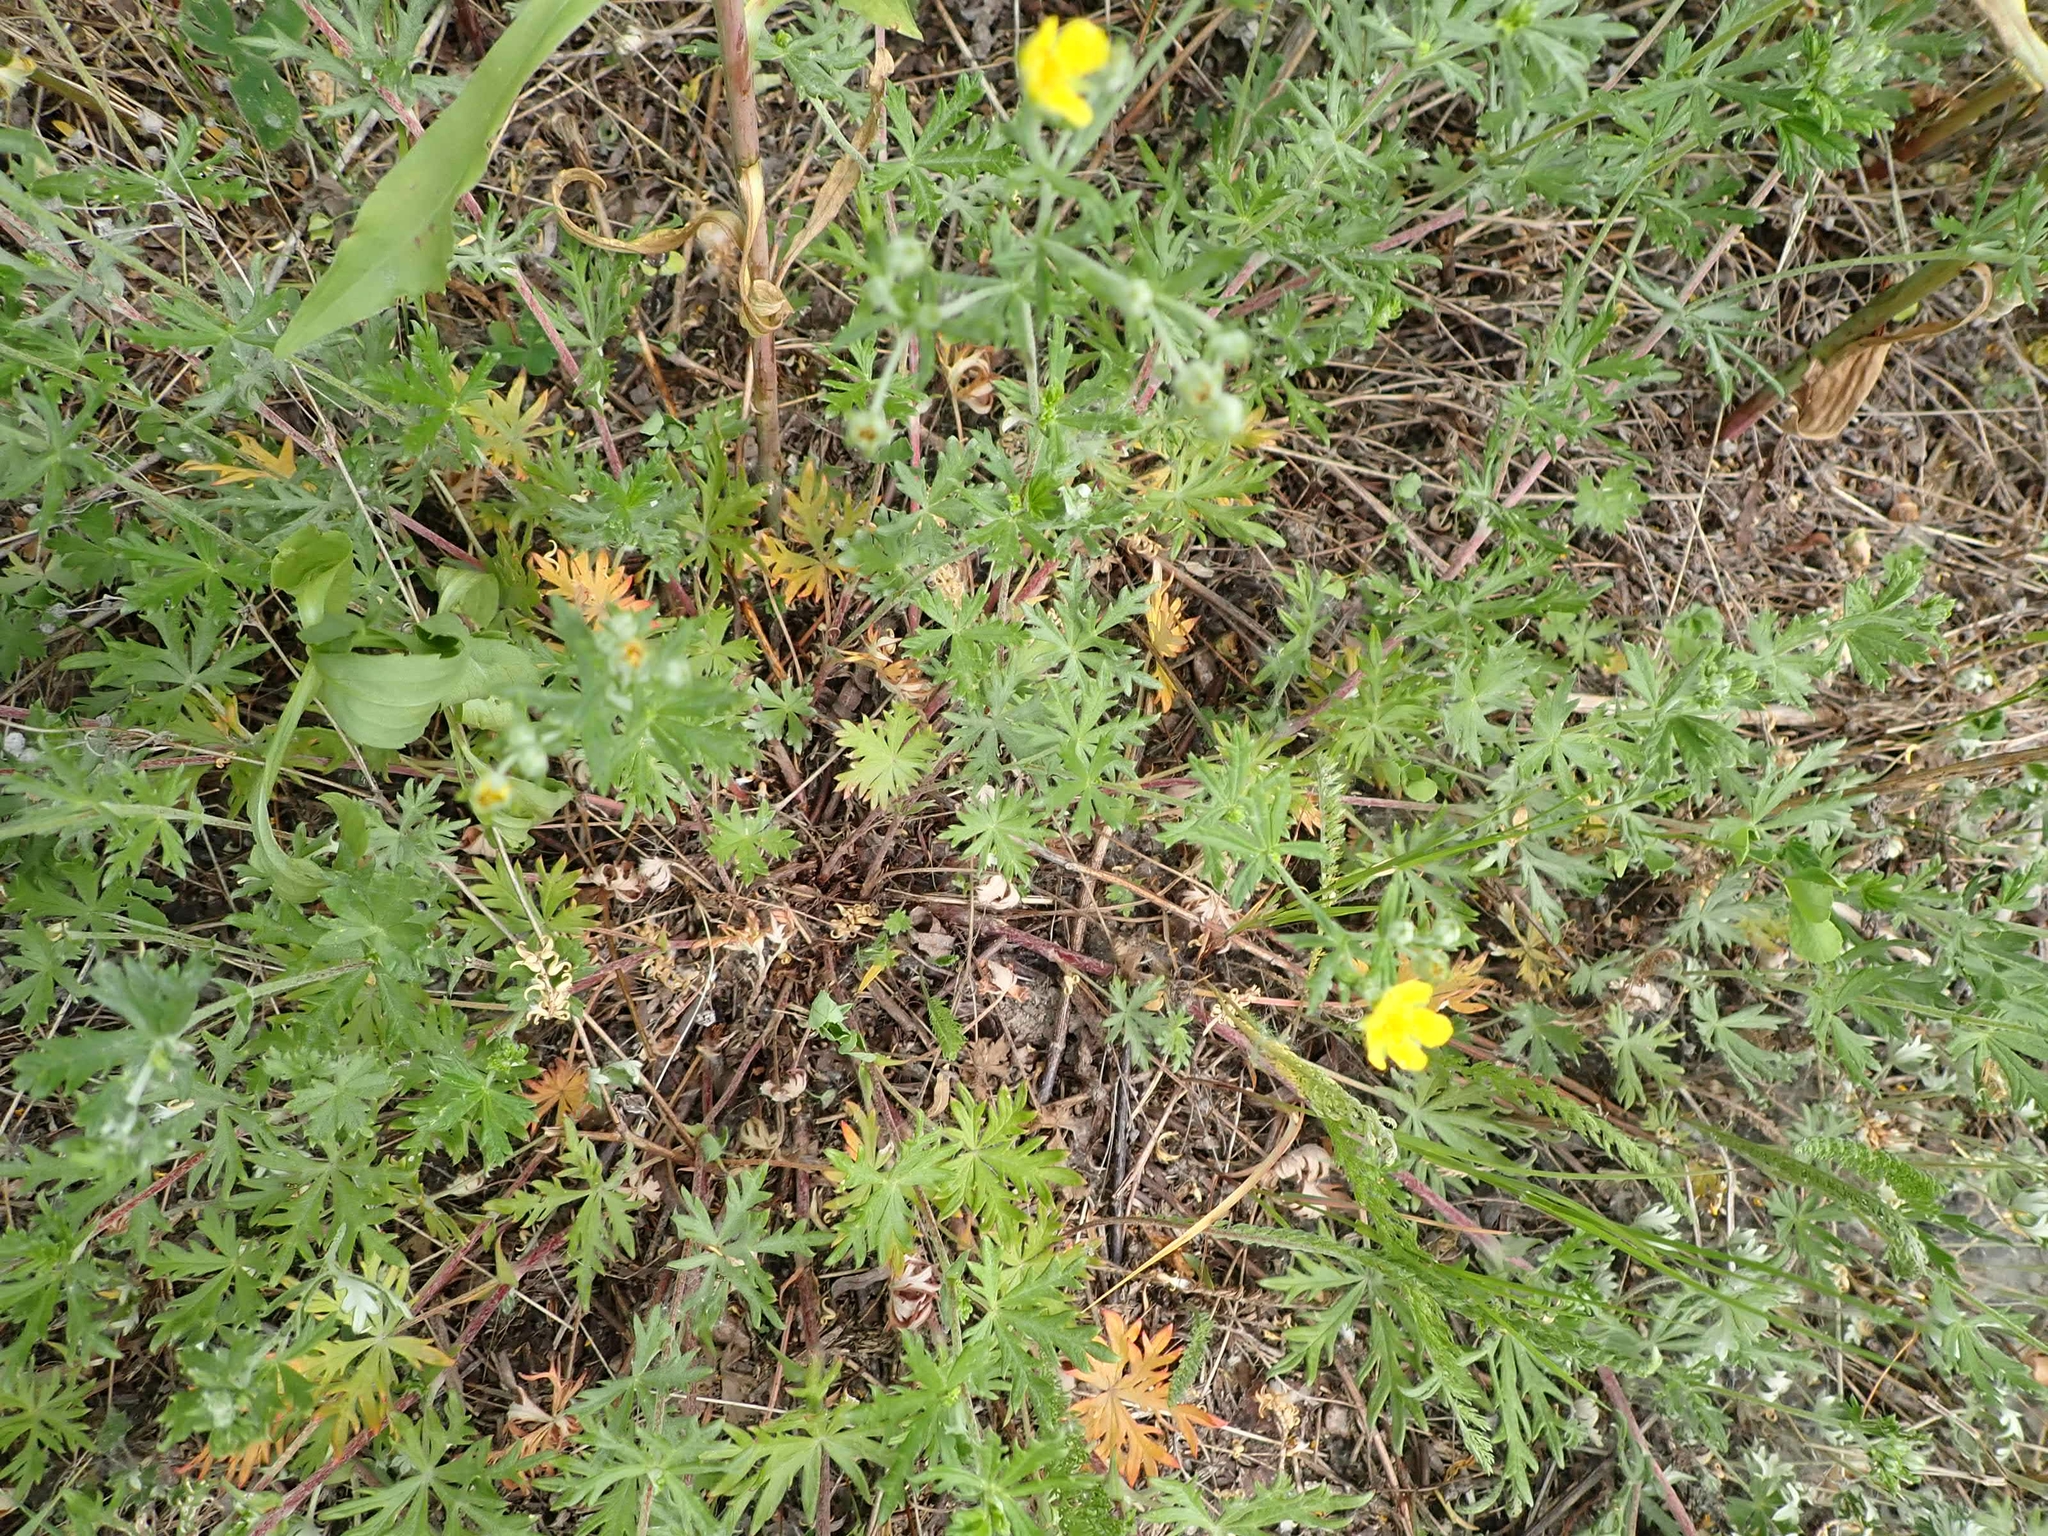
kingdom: Plantae
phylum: Tracheophyta
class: Magnoliopsida
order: Rosales
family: Rosaceae
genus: Potentilla
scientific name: Potentilla argentea
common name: Hoary cinquefoil
